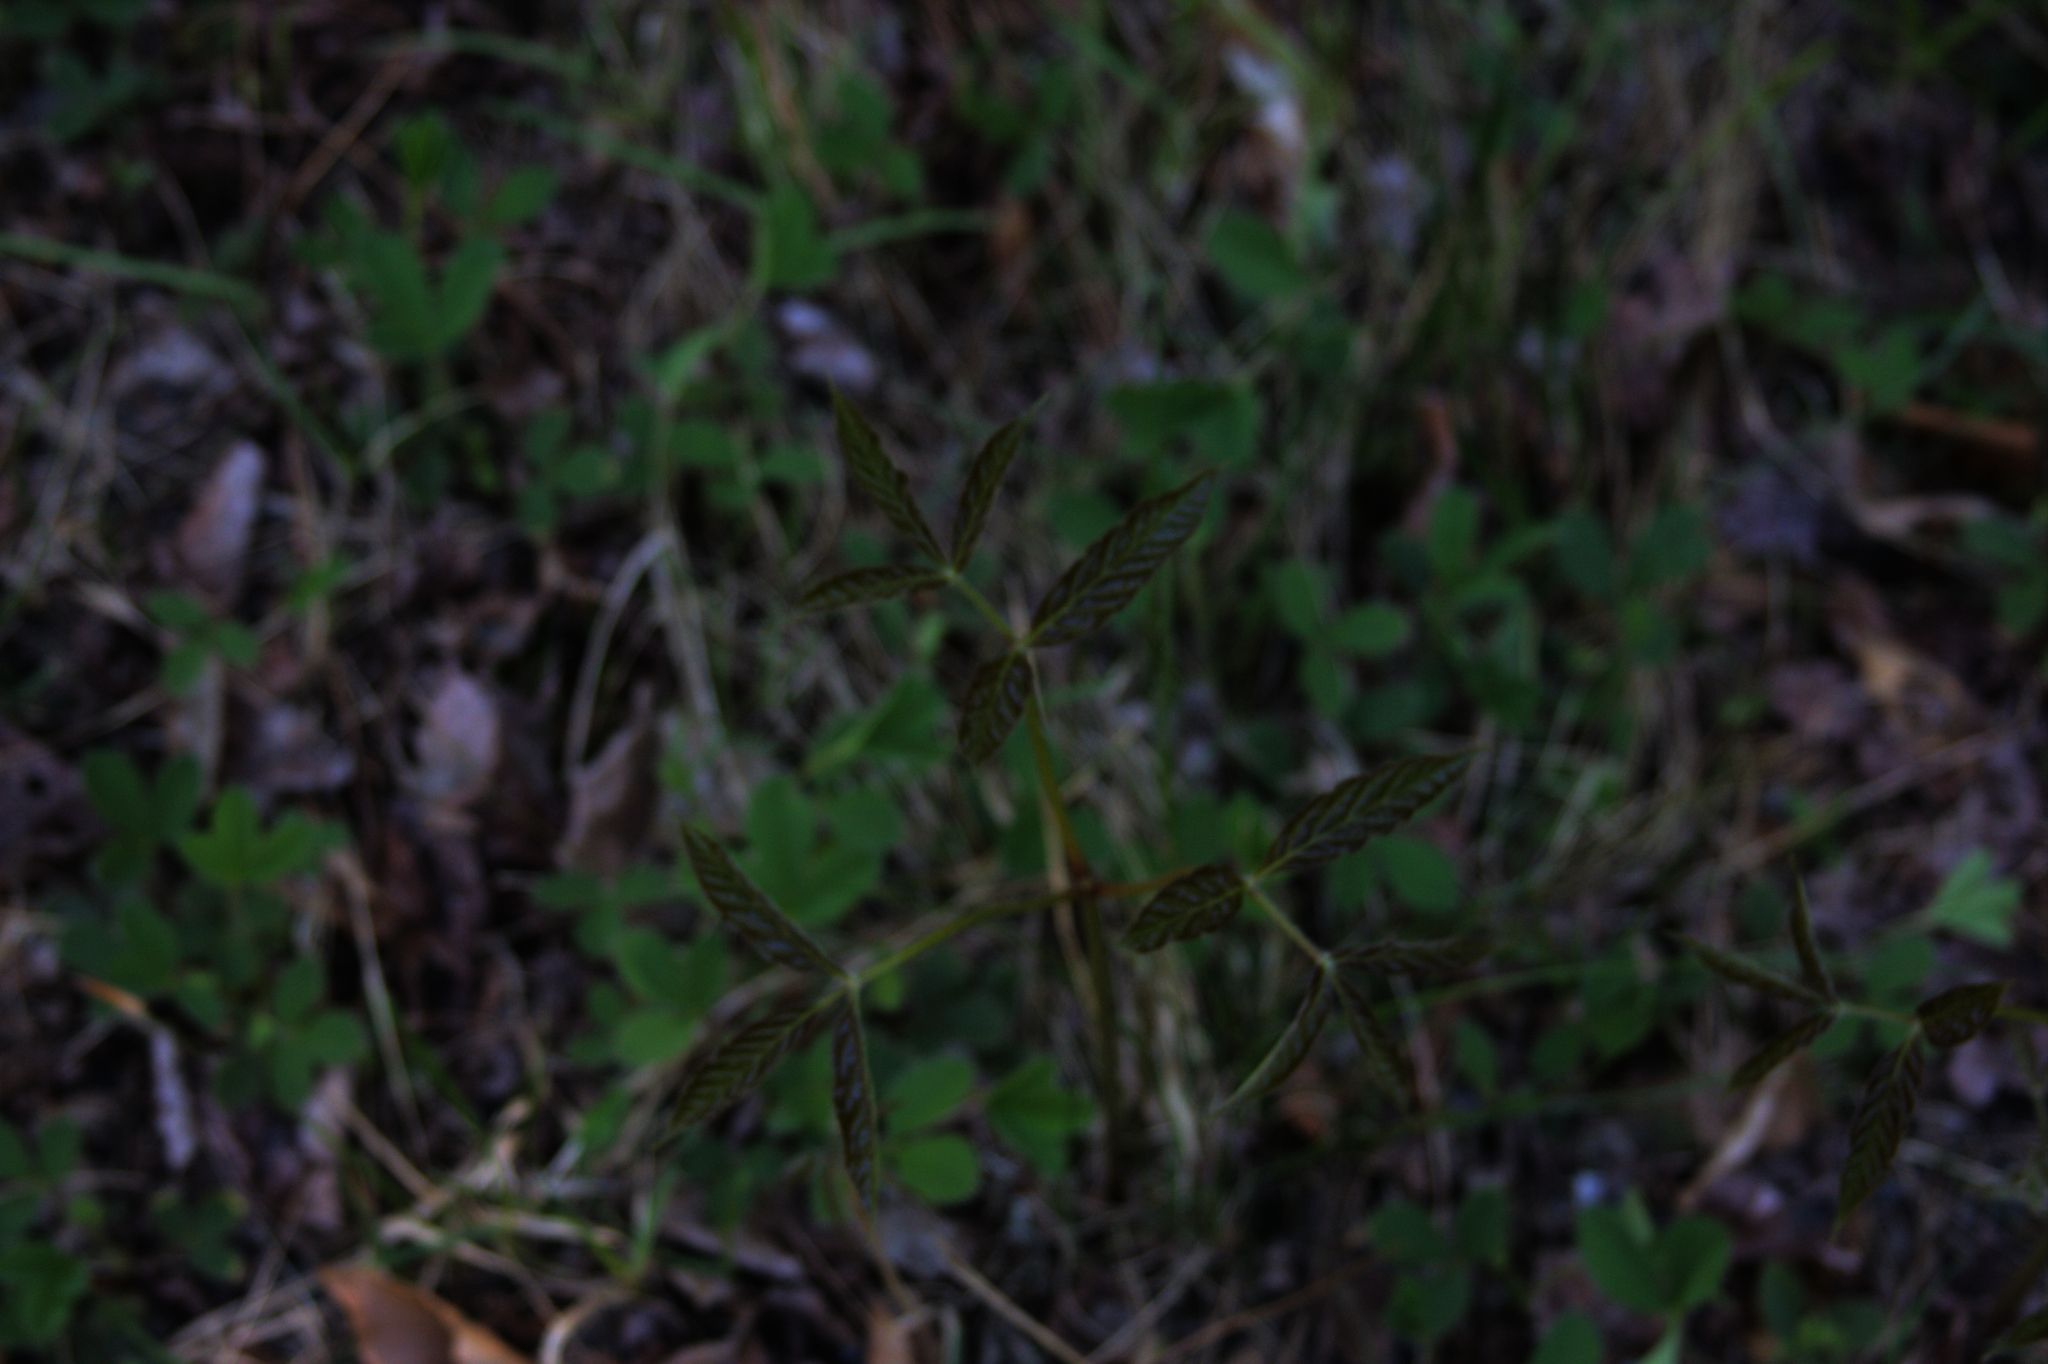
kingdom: Plantae
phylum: Tracheophyta
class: Magnoliopsida
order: Apiales
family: Araliaceae
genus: Aralia
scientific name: Aralia nudicaulis
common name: Wild sarsaparilla
